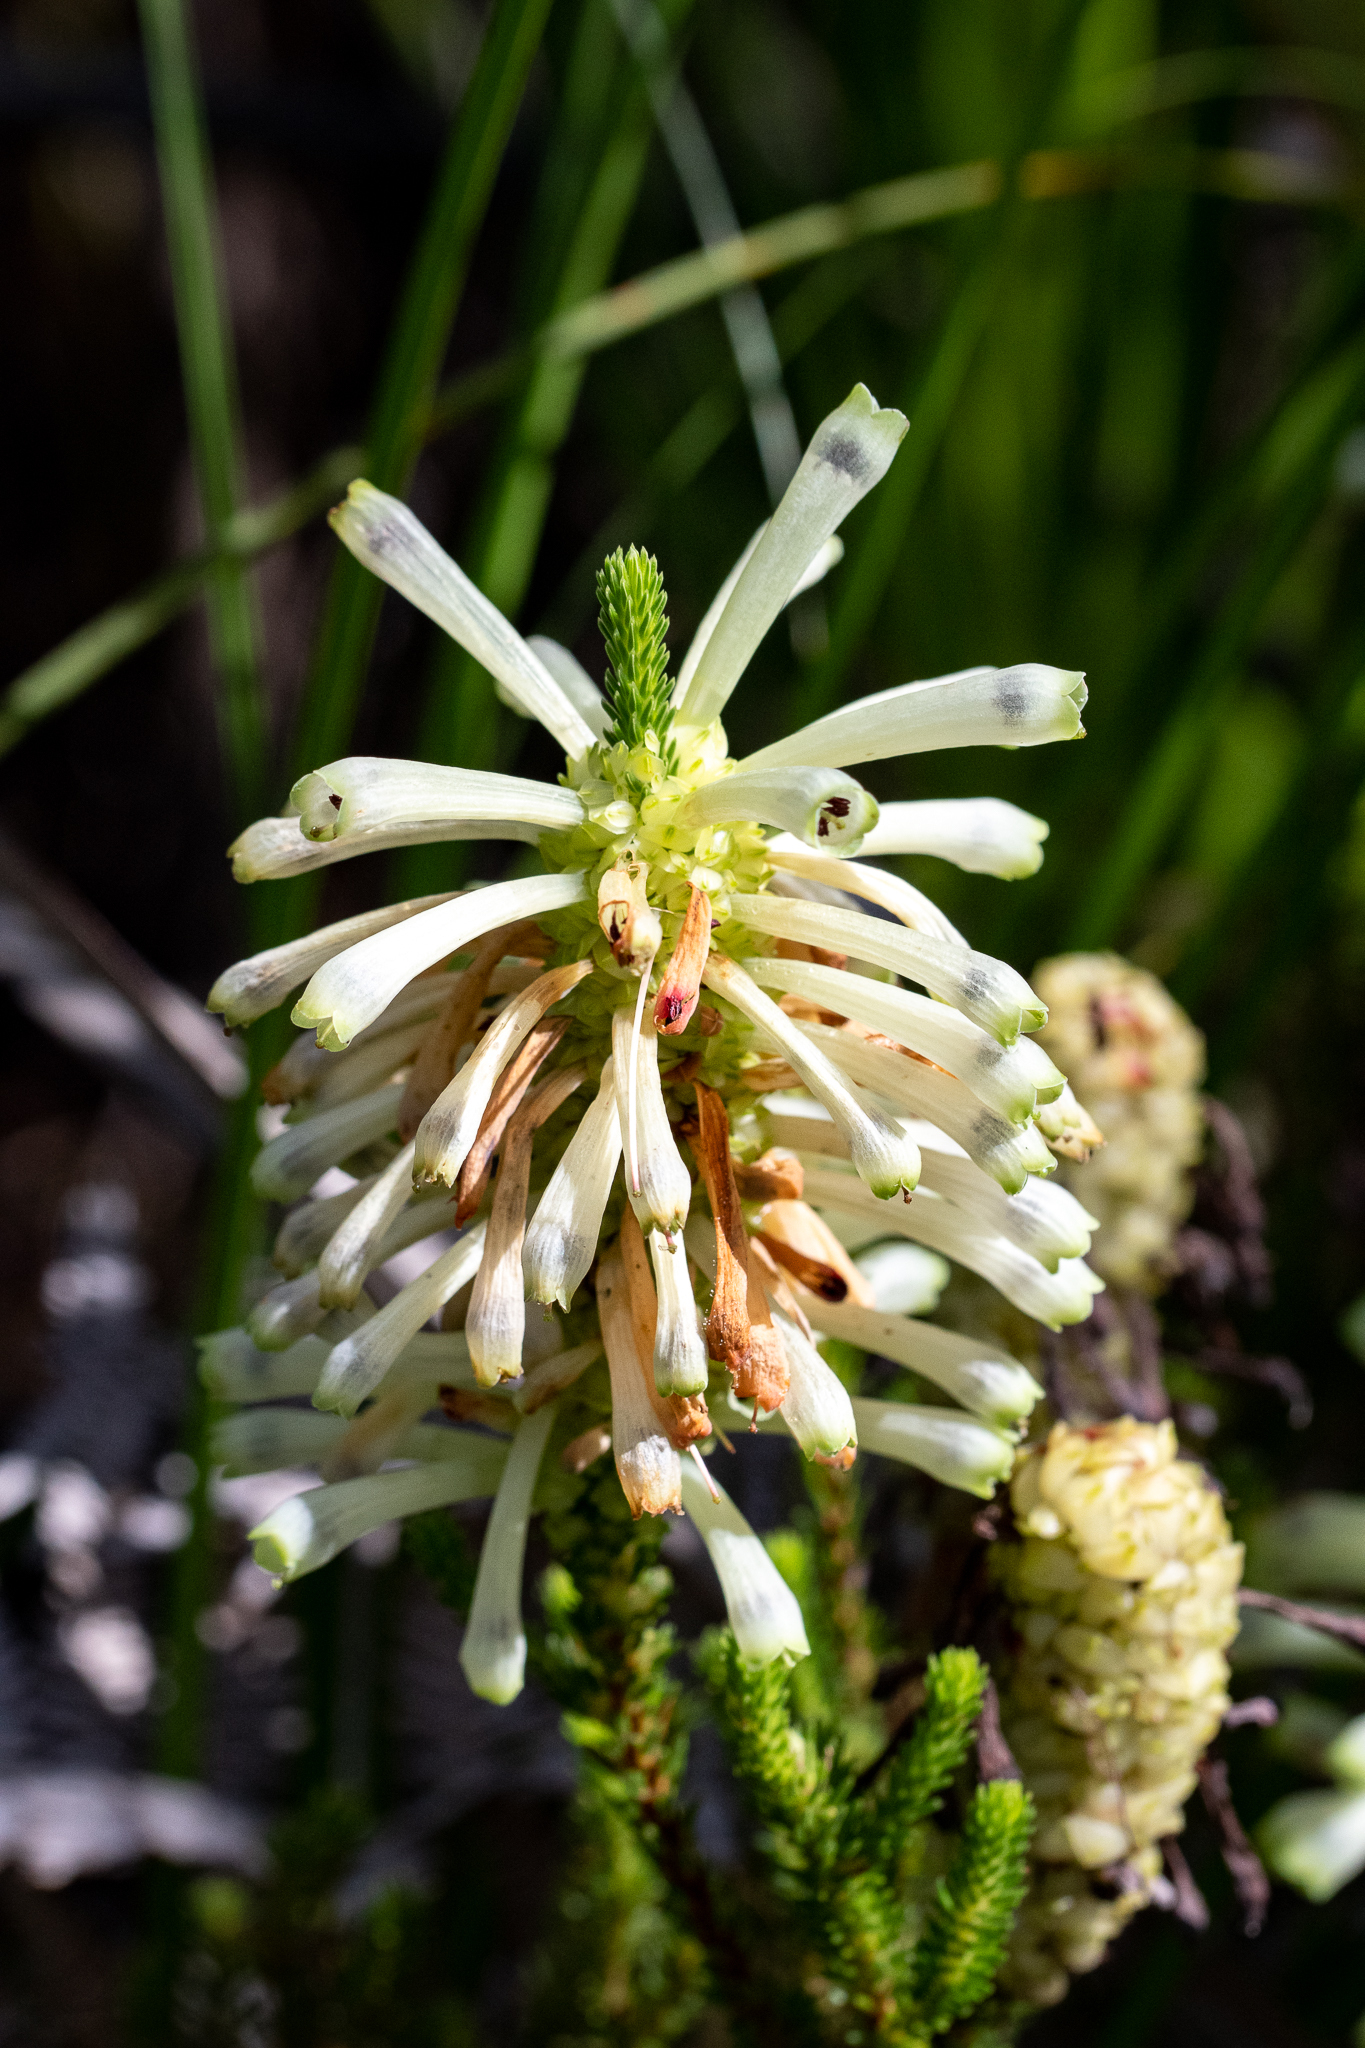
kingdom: Plantae
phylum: Tracheophyta
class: Magnoliopsida
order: Ericales
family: Ericaceae
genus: Erica
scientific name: Erica sessiliflora
